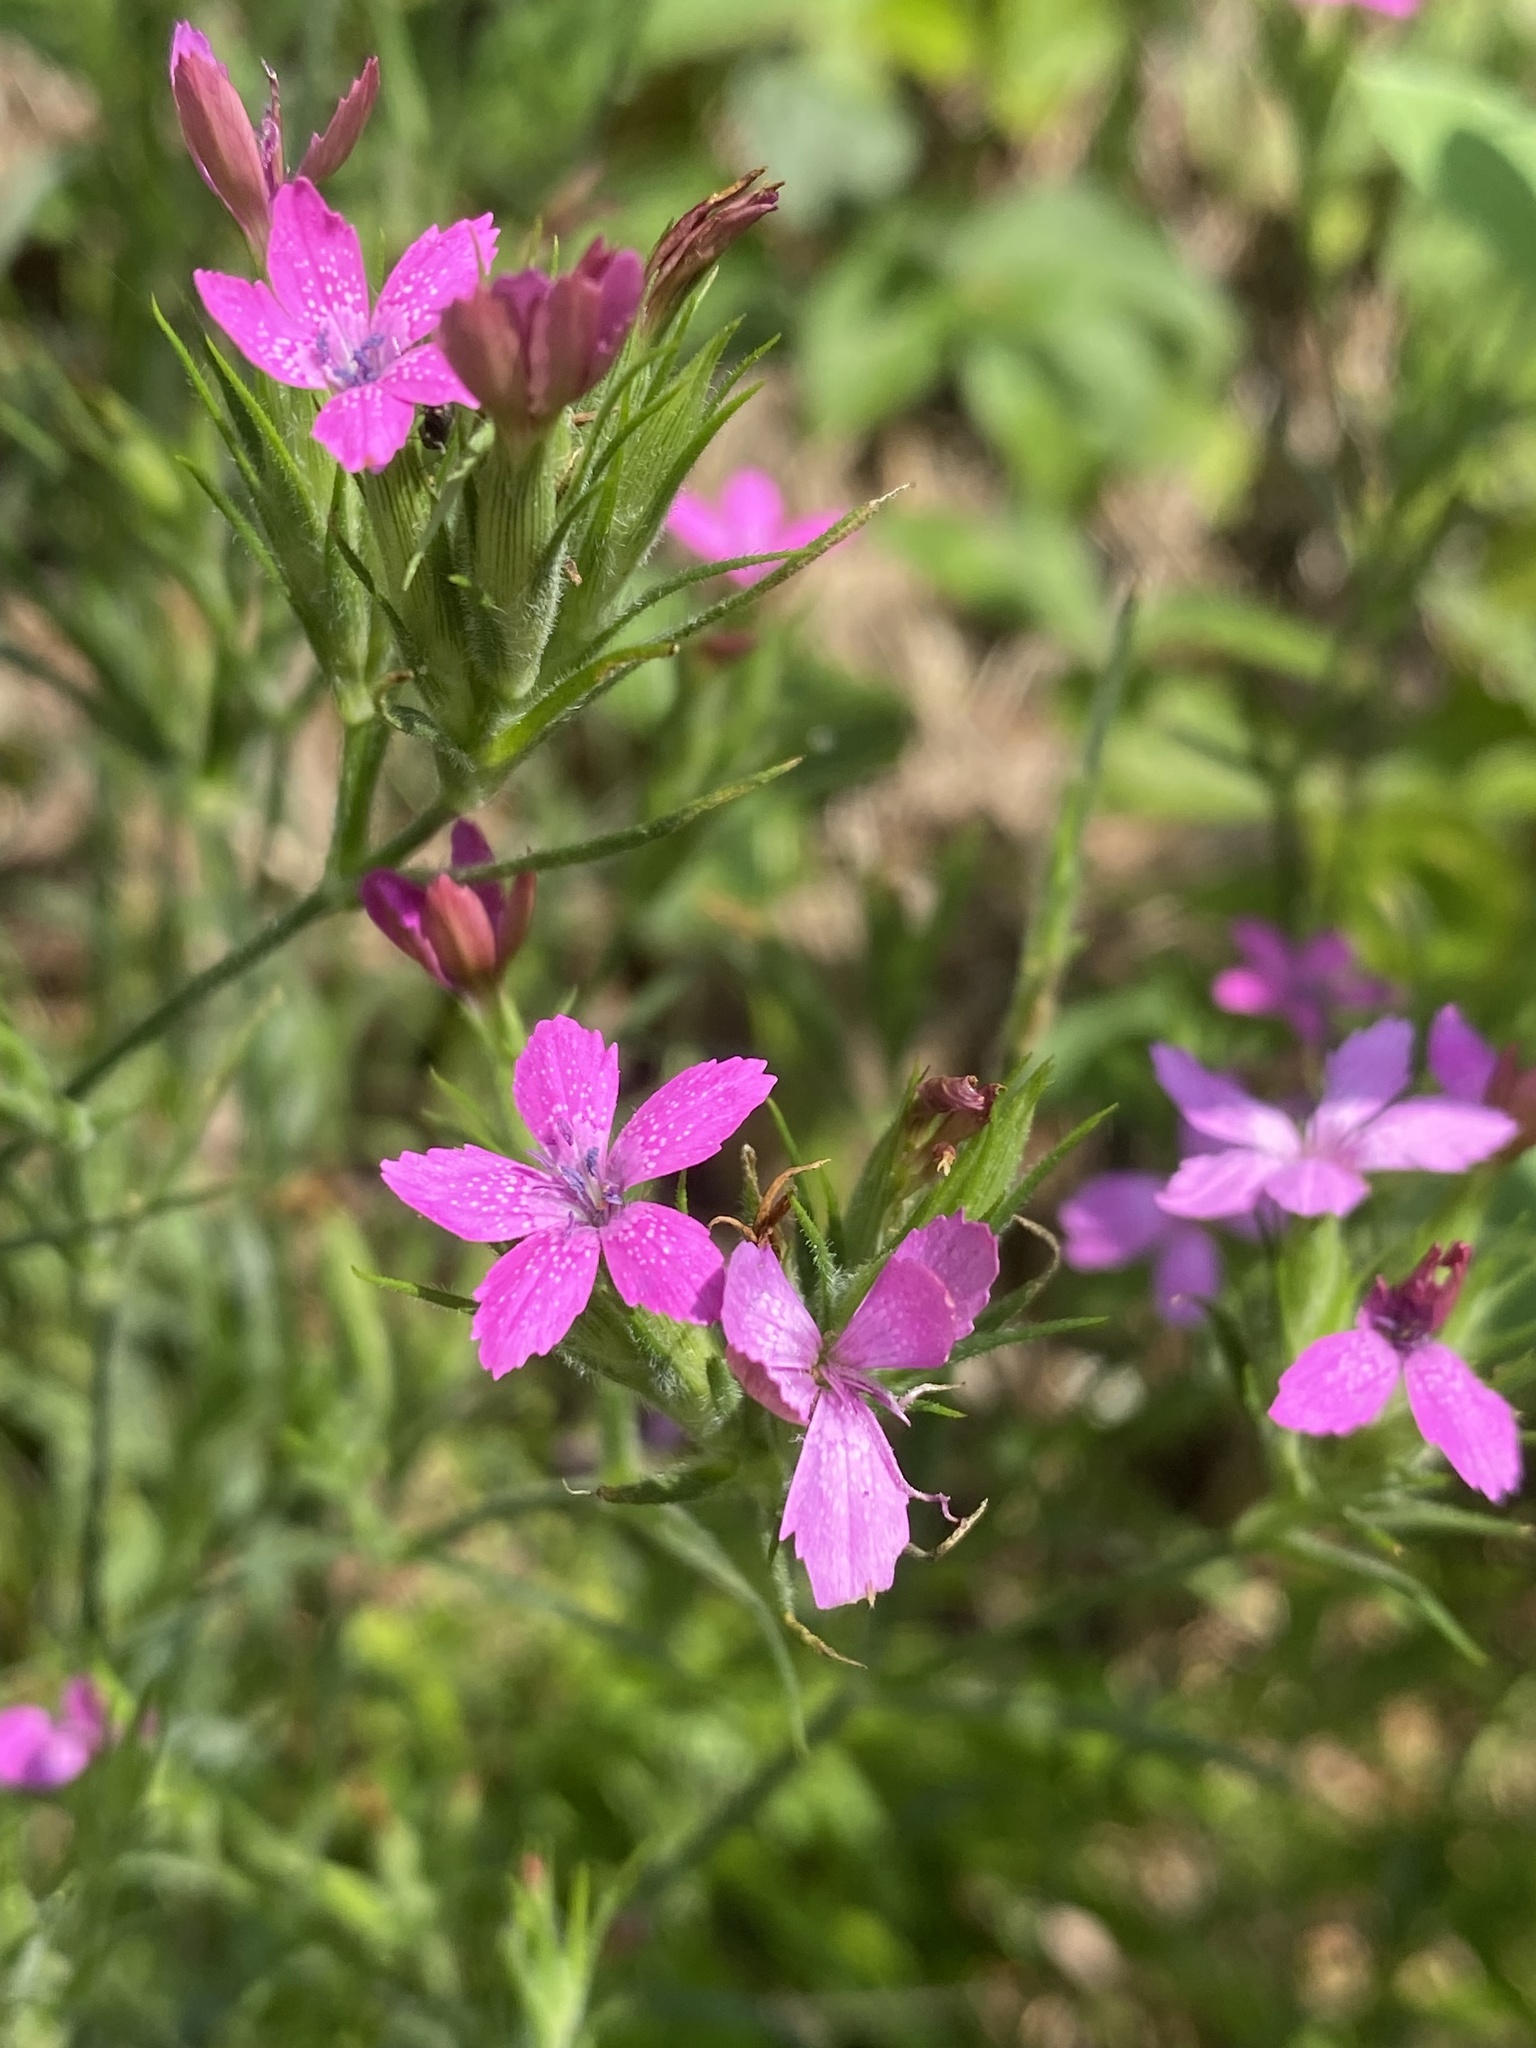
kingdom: Plantae
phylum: Tracheophyta
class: Magnoliopsida
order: Caryophyllales
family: Caryophyllaceae
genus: Dianthus
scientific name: Dianthus armeria
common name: Deptford pink
